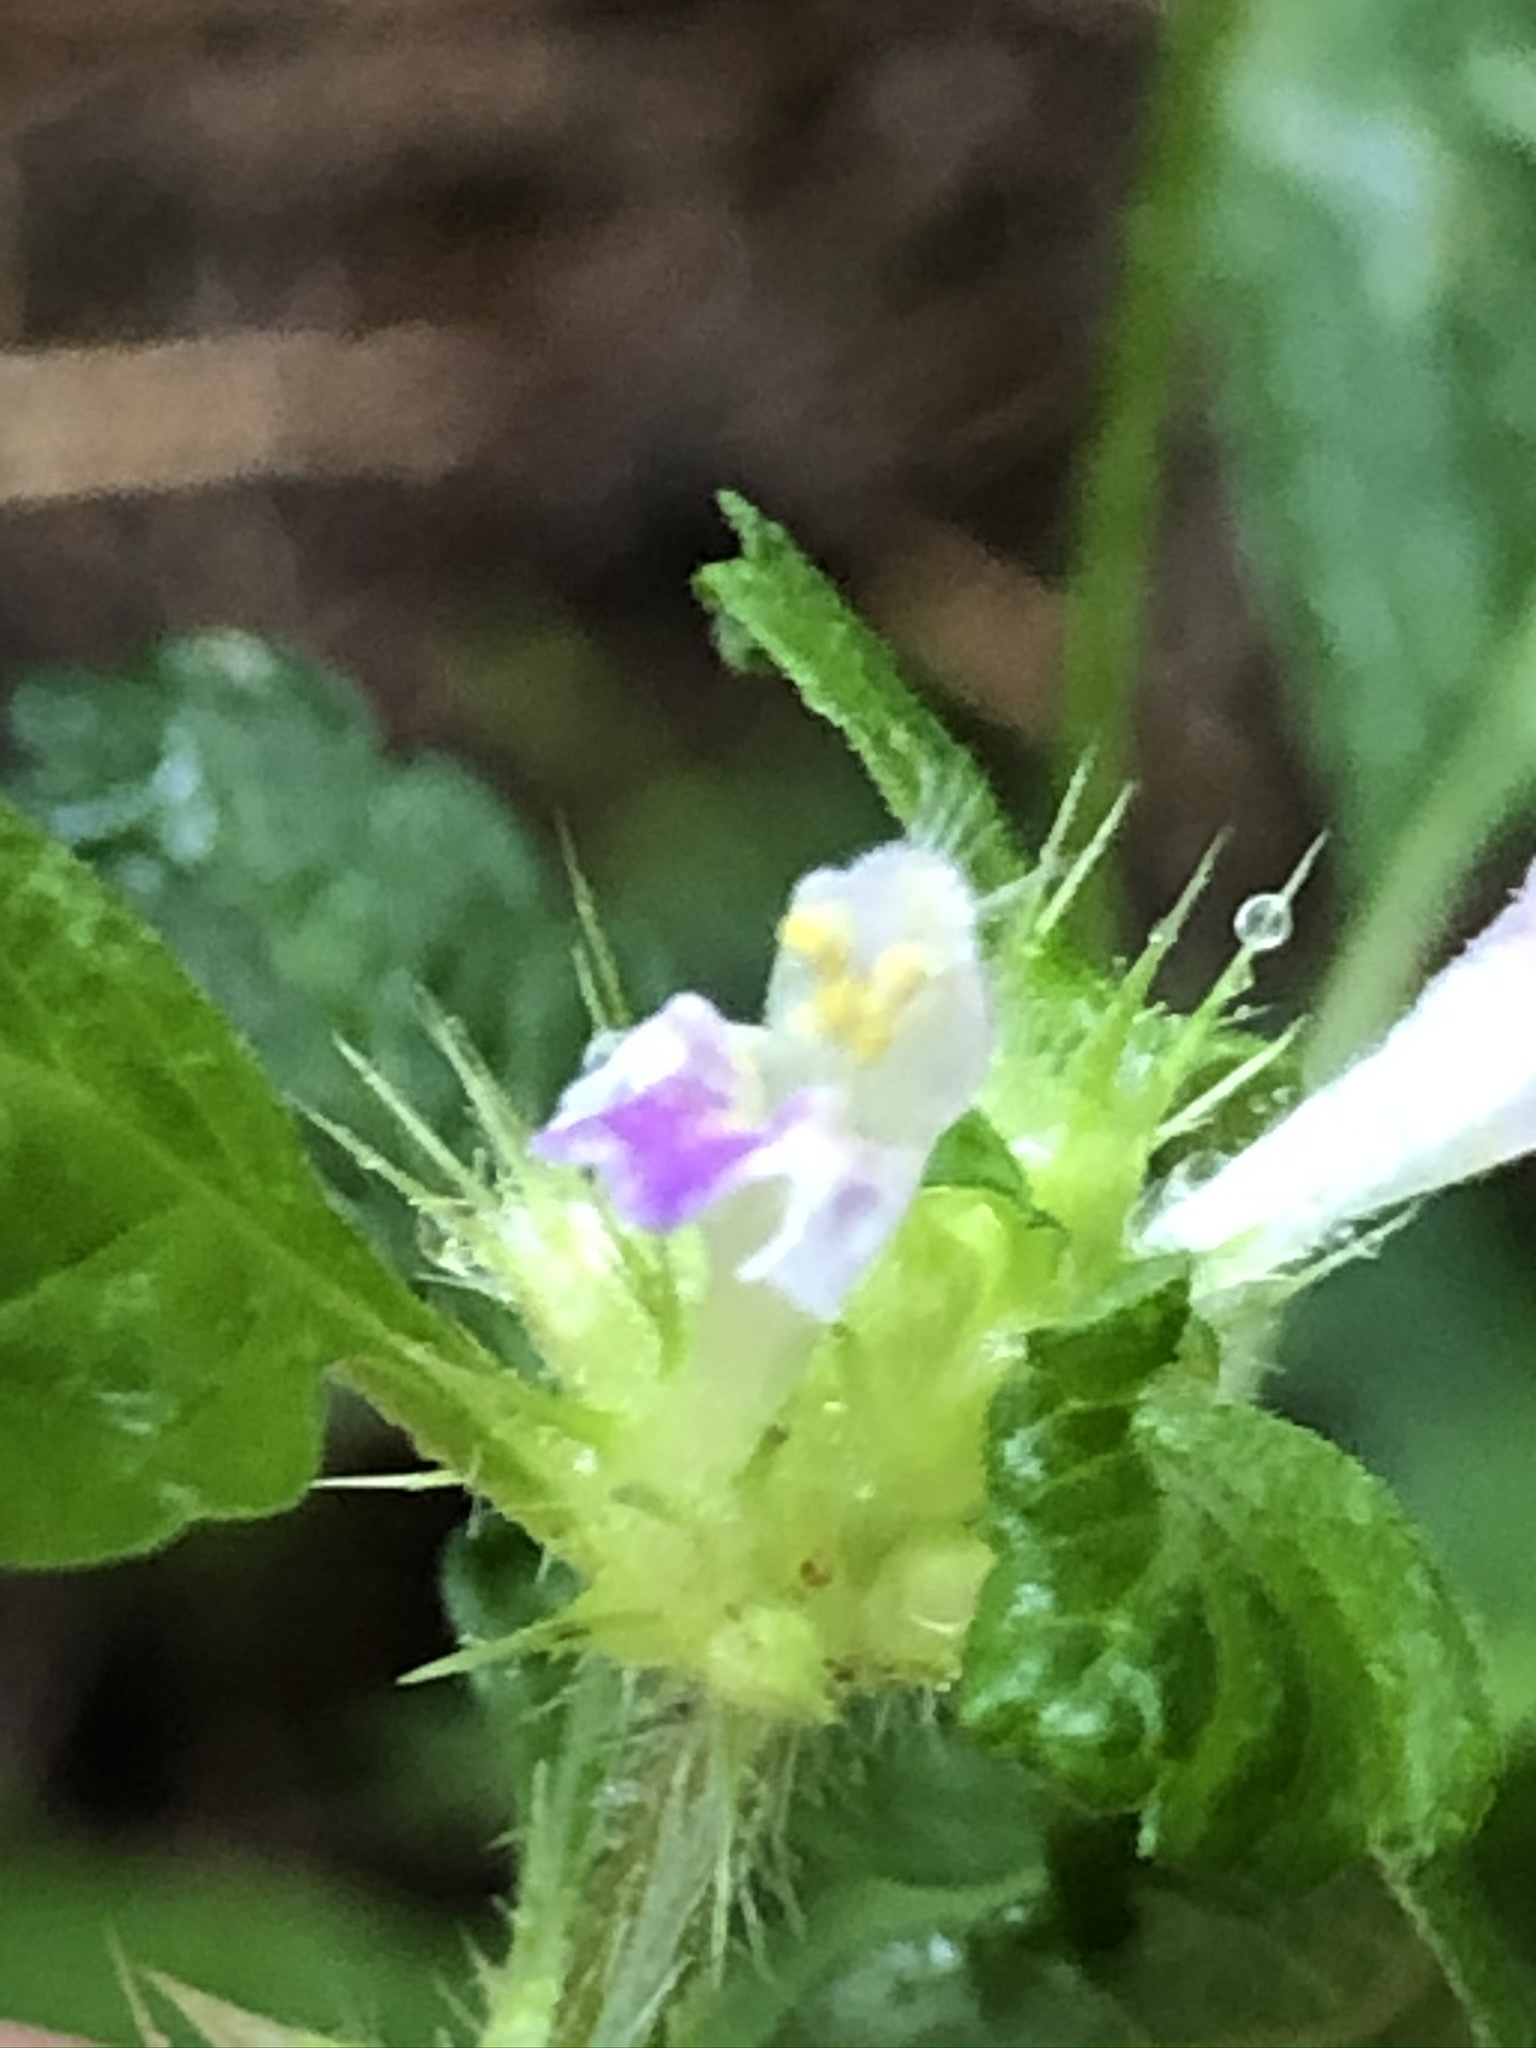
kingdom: Plantae
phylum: Tracheophyta
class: Magnoliopsida
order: Lamiales
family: Lamiaceae
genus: Galeopsis
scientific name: Galeopsis tetrahit
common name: Common hemp-nettle
